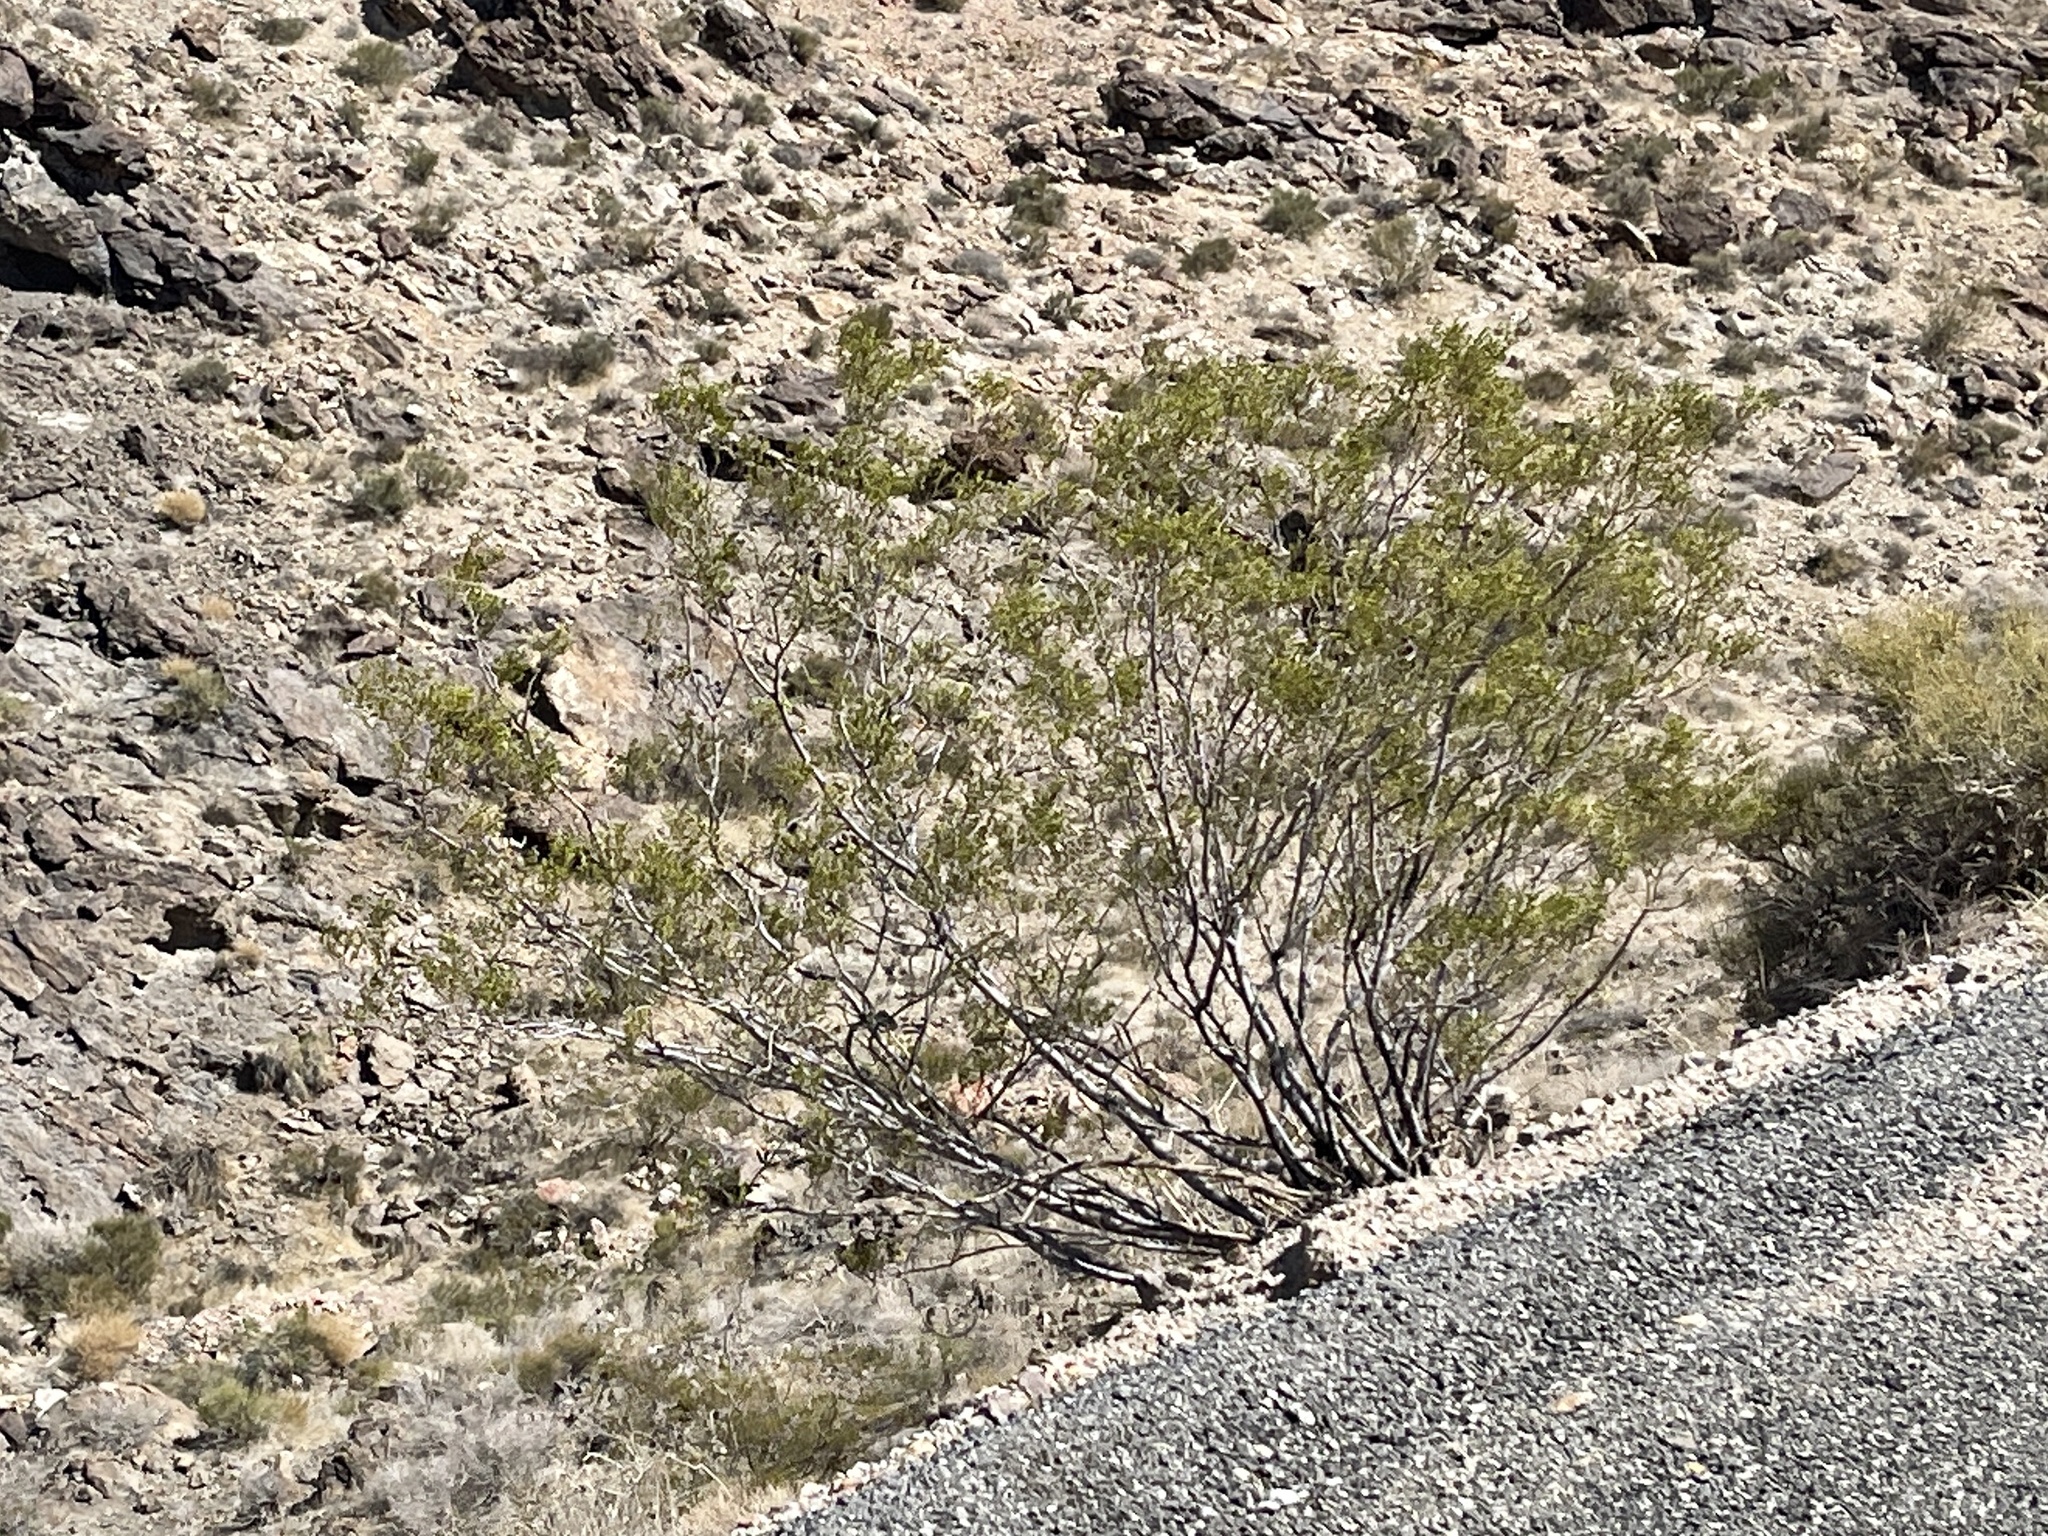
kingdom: Plantae
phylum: Tracheophyta
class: Magnoliopsida
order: Zygophyllales
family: Zygophyllaceae
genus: Larrea
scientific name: Larrea tridentata
